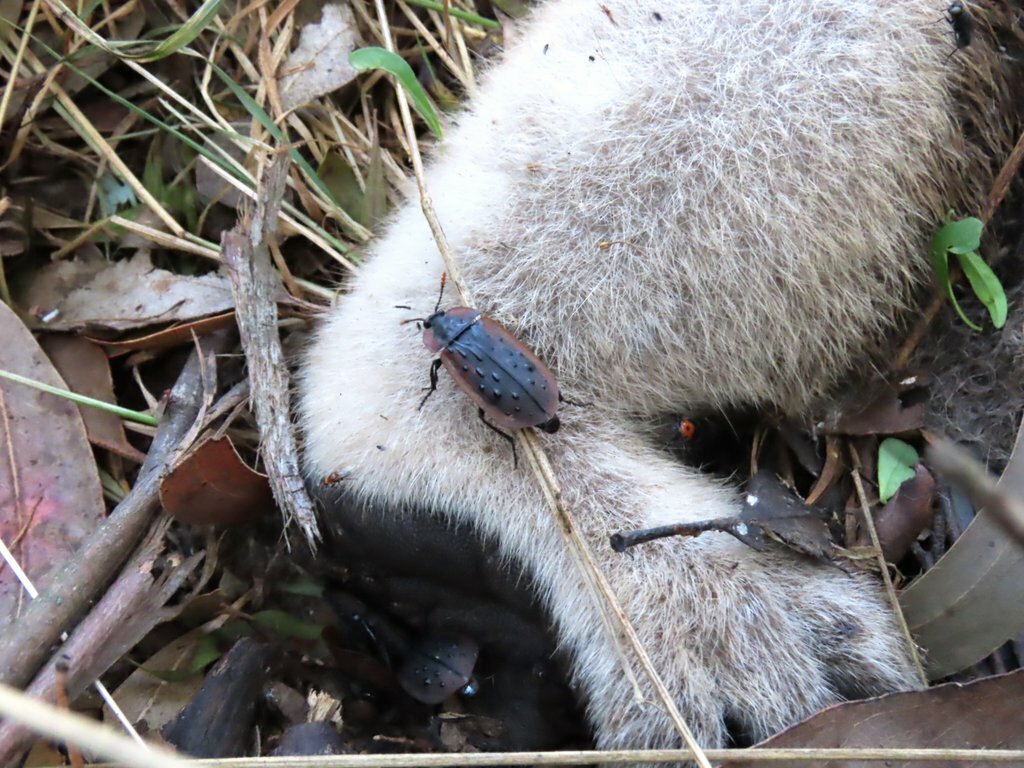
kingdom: Animalia
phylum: Arthropoda
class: Insecta
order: Coleoptera
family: Staphylinidae
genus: Ptomaphila
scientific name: Ptomaphila lacrymosa
